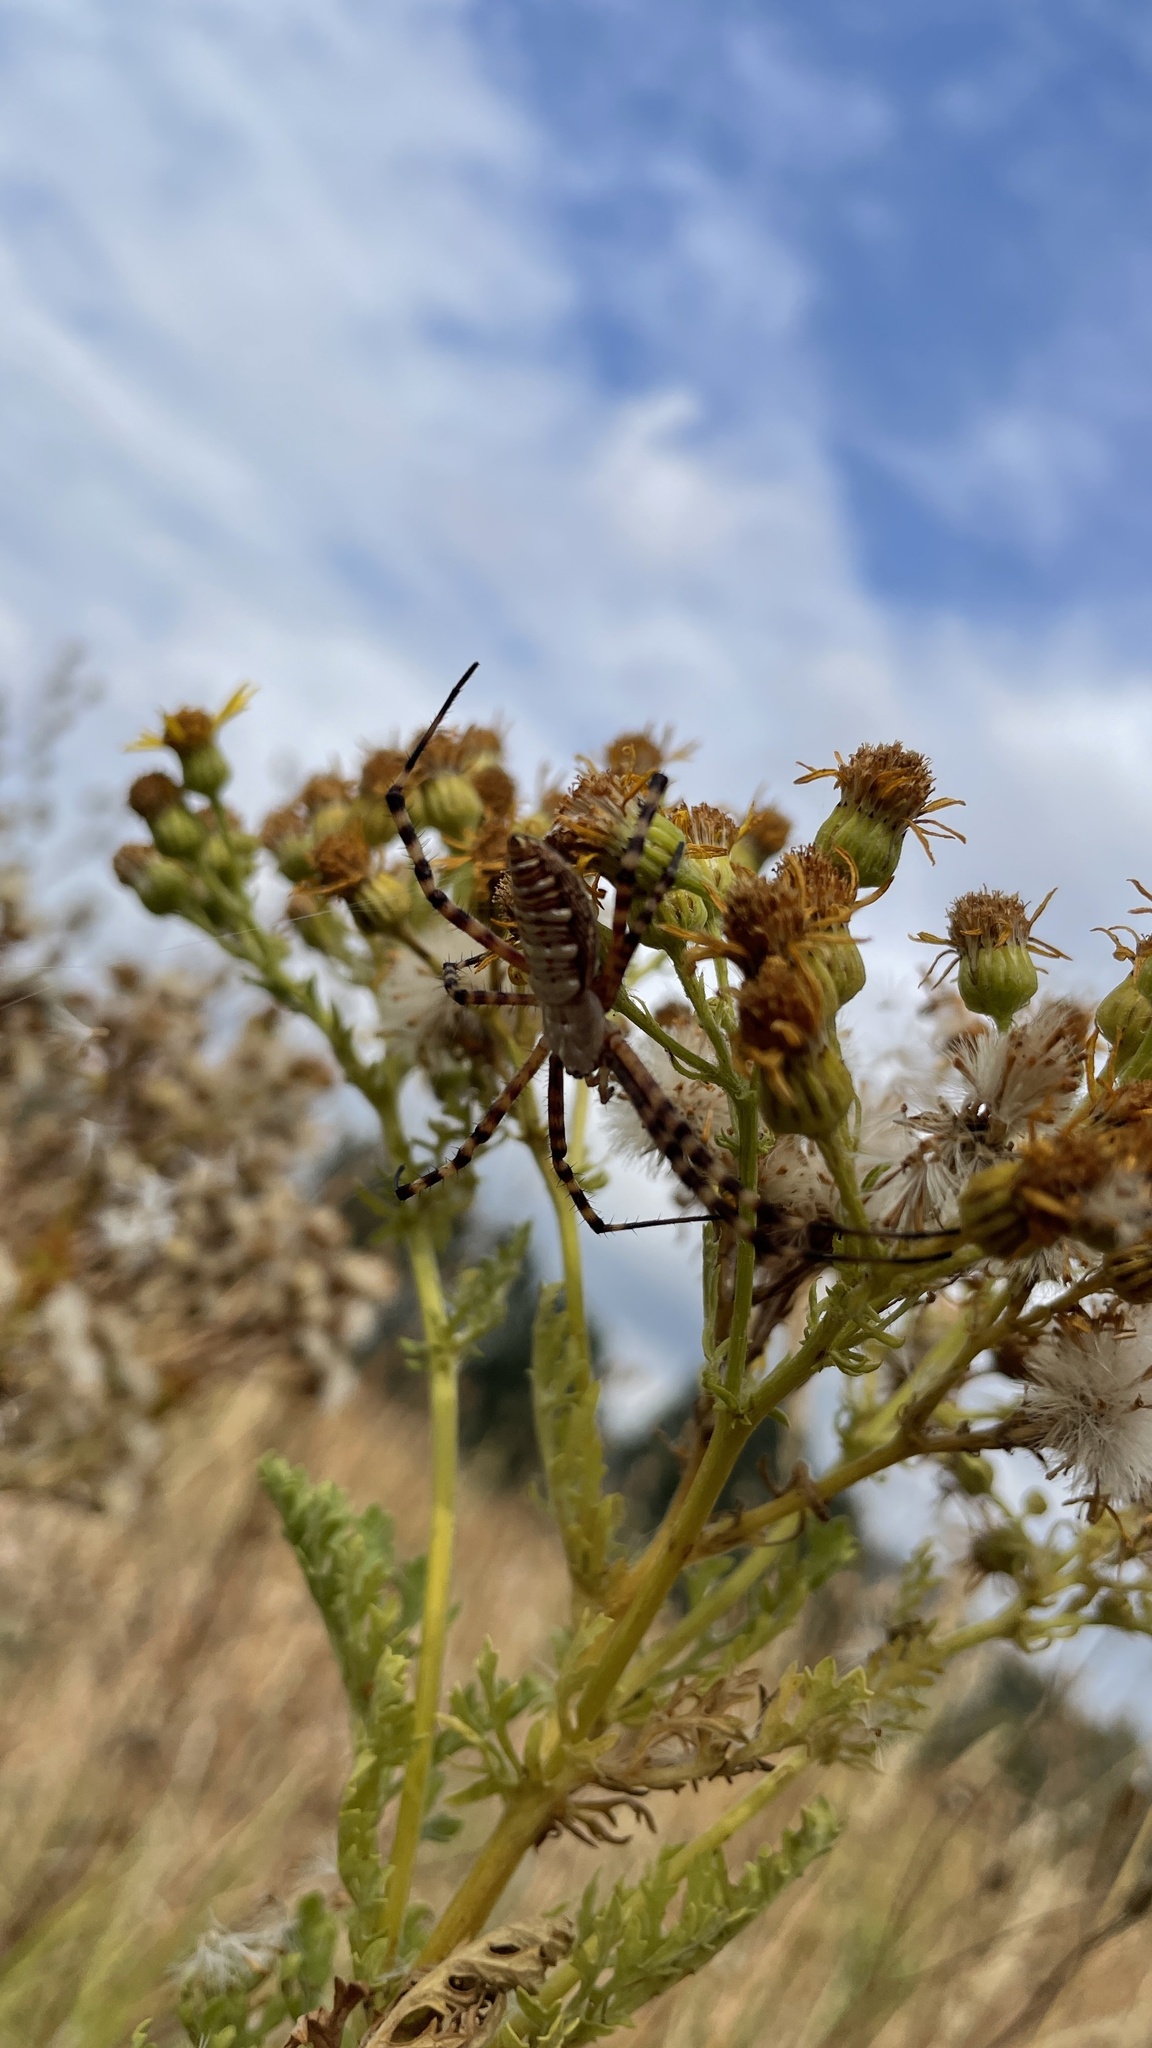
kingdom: Animalia
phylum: Arthropoda
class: Arachnida
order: Araneae
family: Araneidae
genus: Argiope
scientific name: Argiope trifasciata
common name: Banded garden spider
